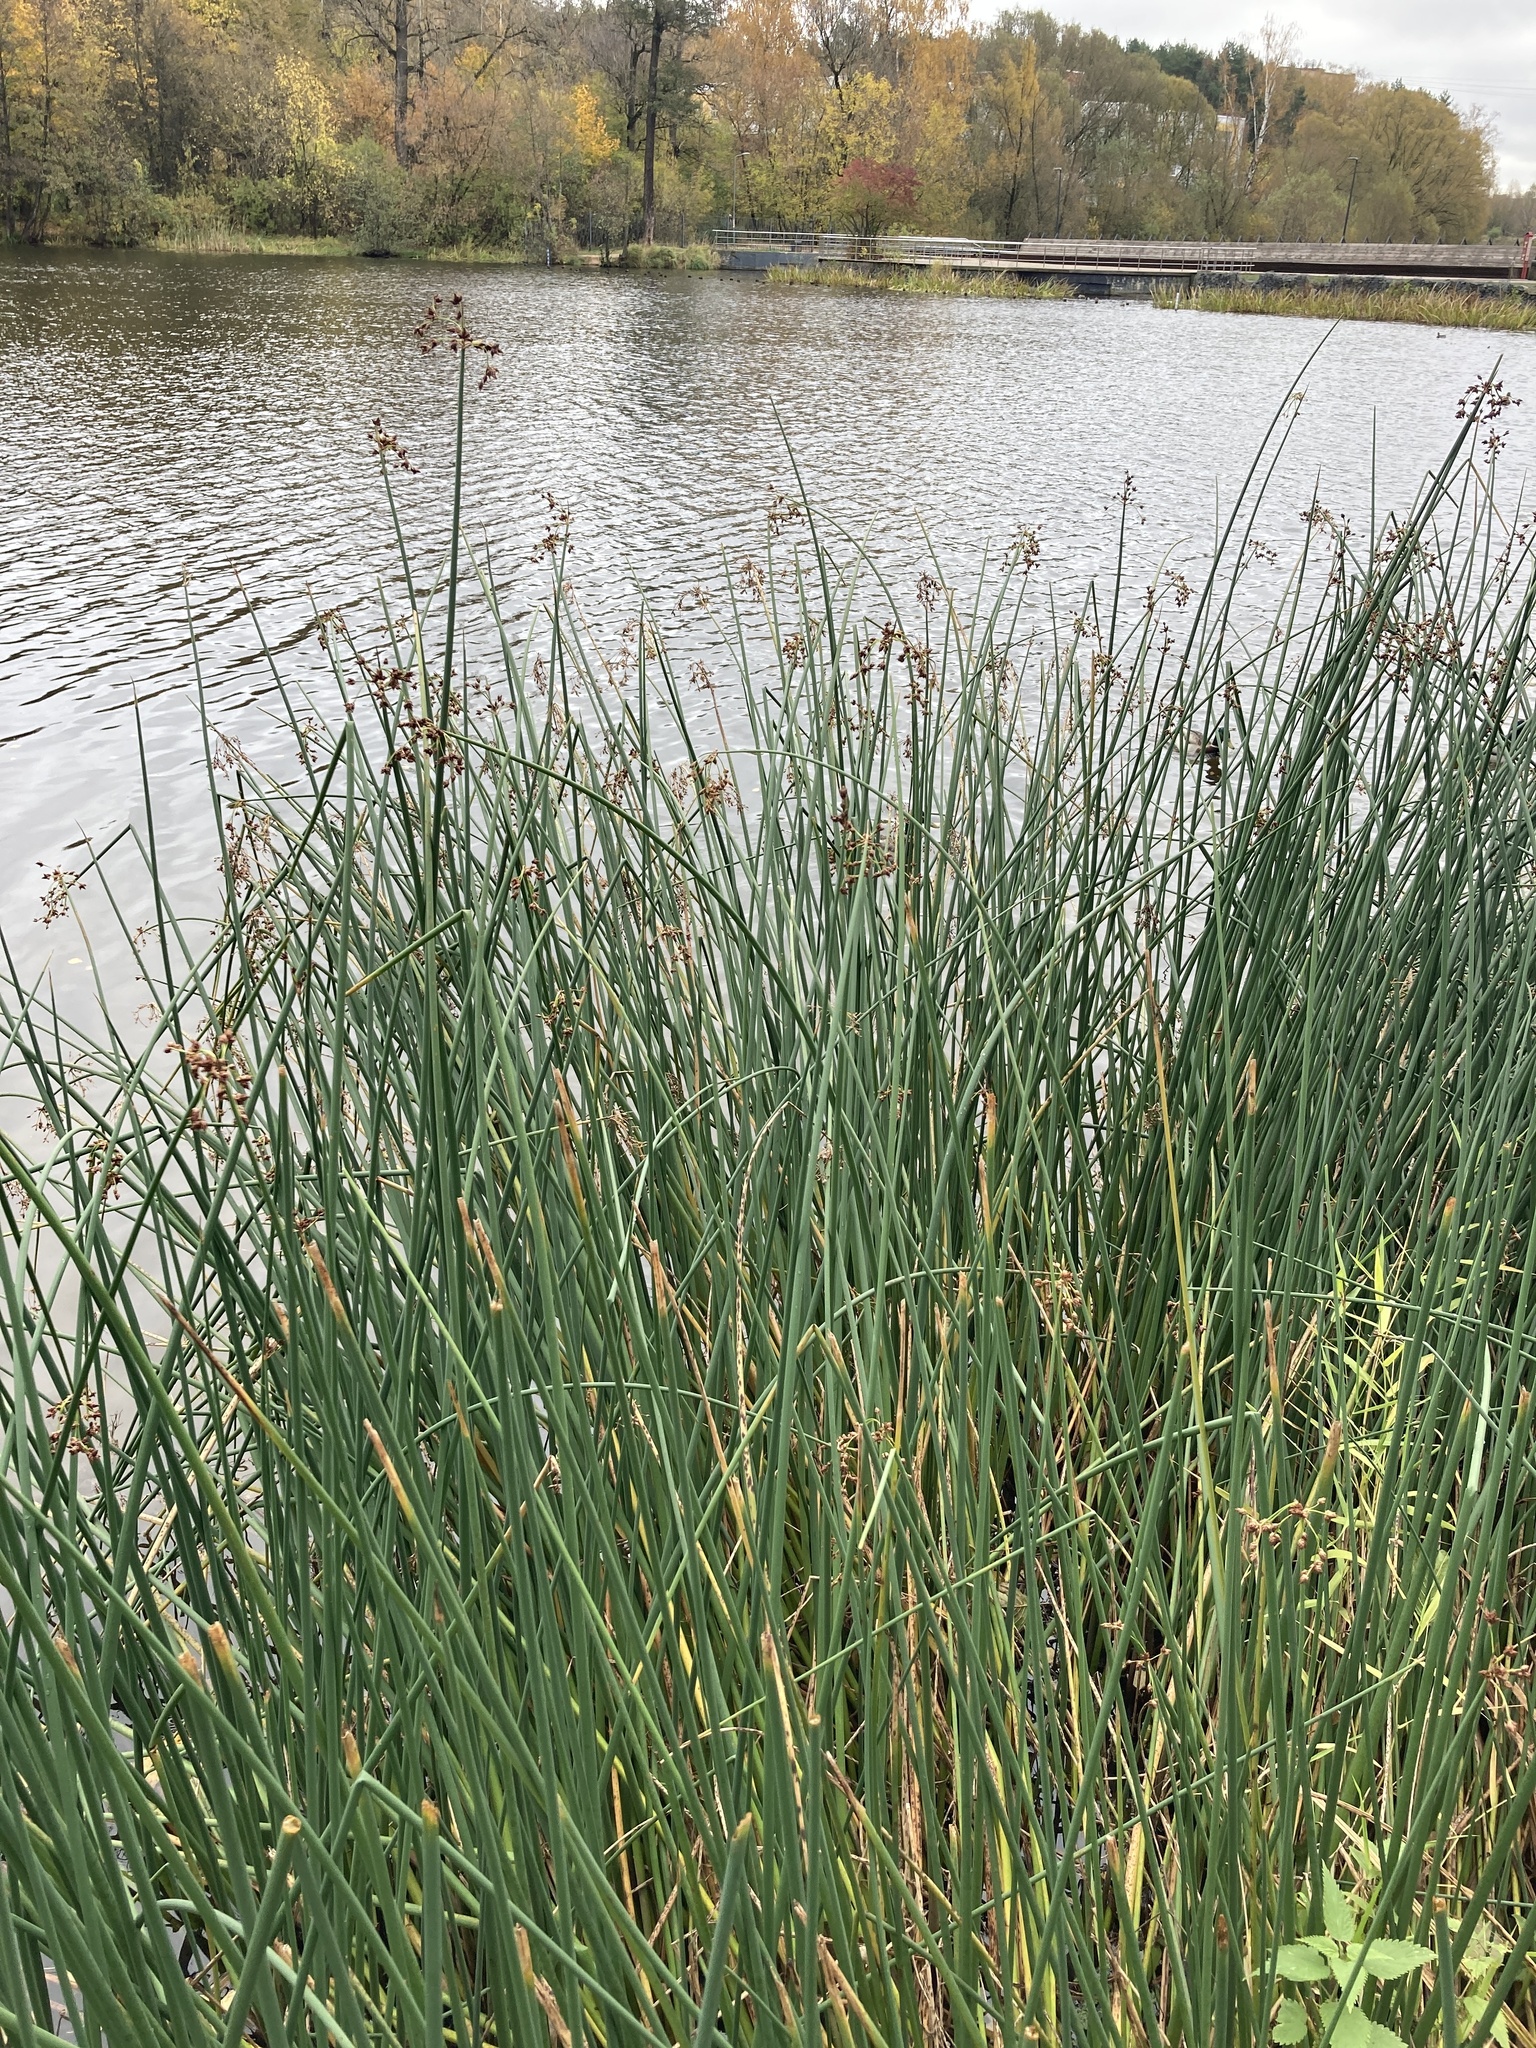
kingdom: Plantae
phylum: Tracheophyta
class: Liliopsida
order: Poales
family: Cyperaceae
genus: Schoenoplectus
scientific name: Schoenoplectus lacustris
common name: Common club-rush
